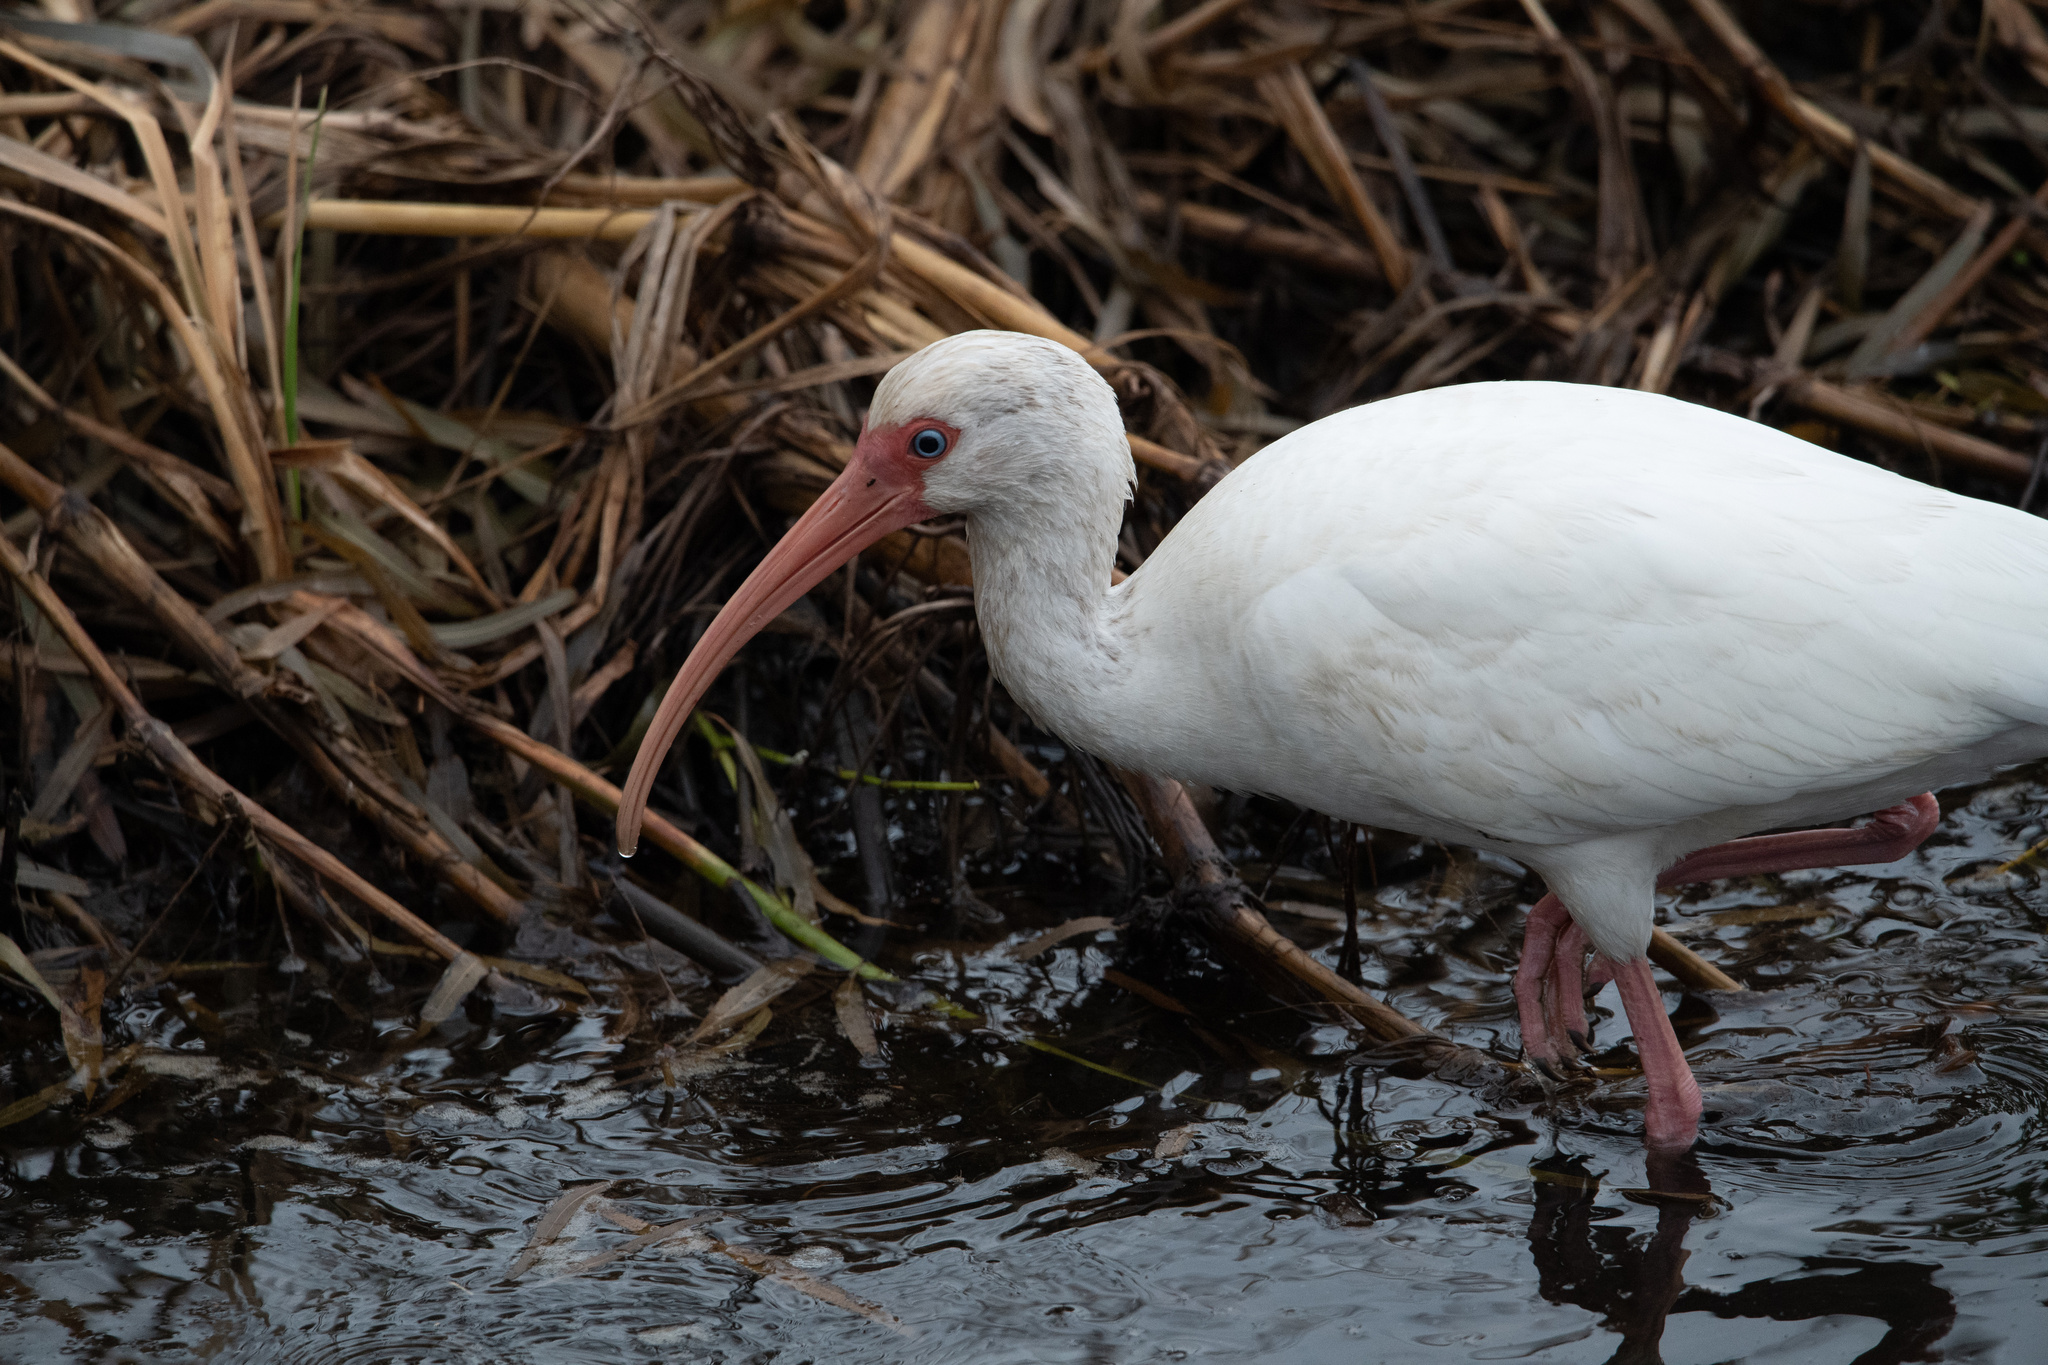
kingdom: Animalia
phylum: Chordata
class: Aves
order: Pelecaniformes
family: Threskiornithidae
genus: Eudocimus
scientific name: Eudocimus albus
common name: White ibis
